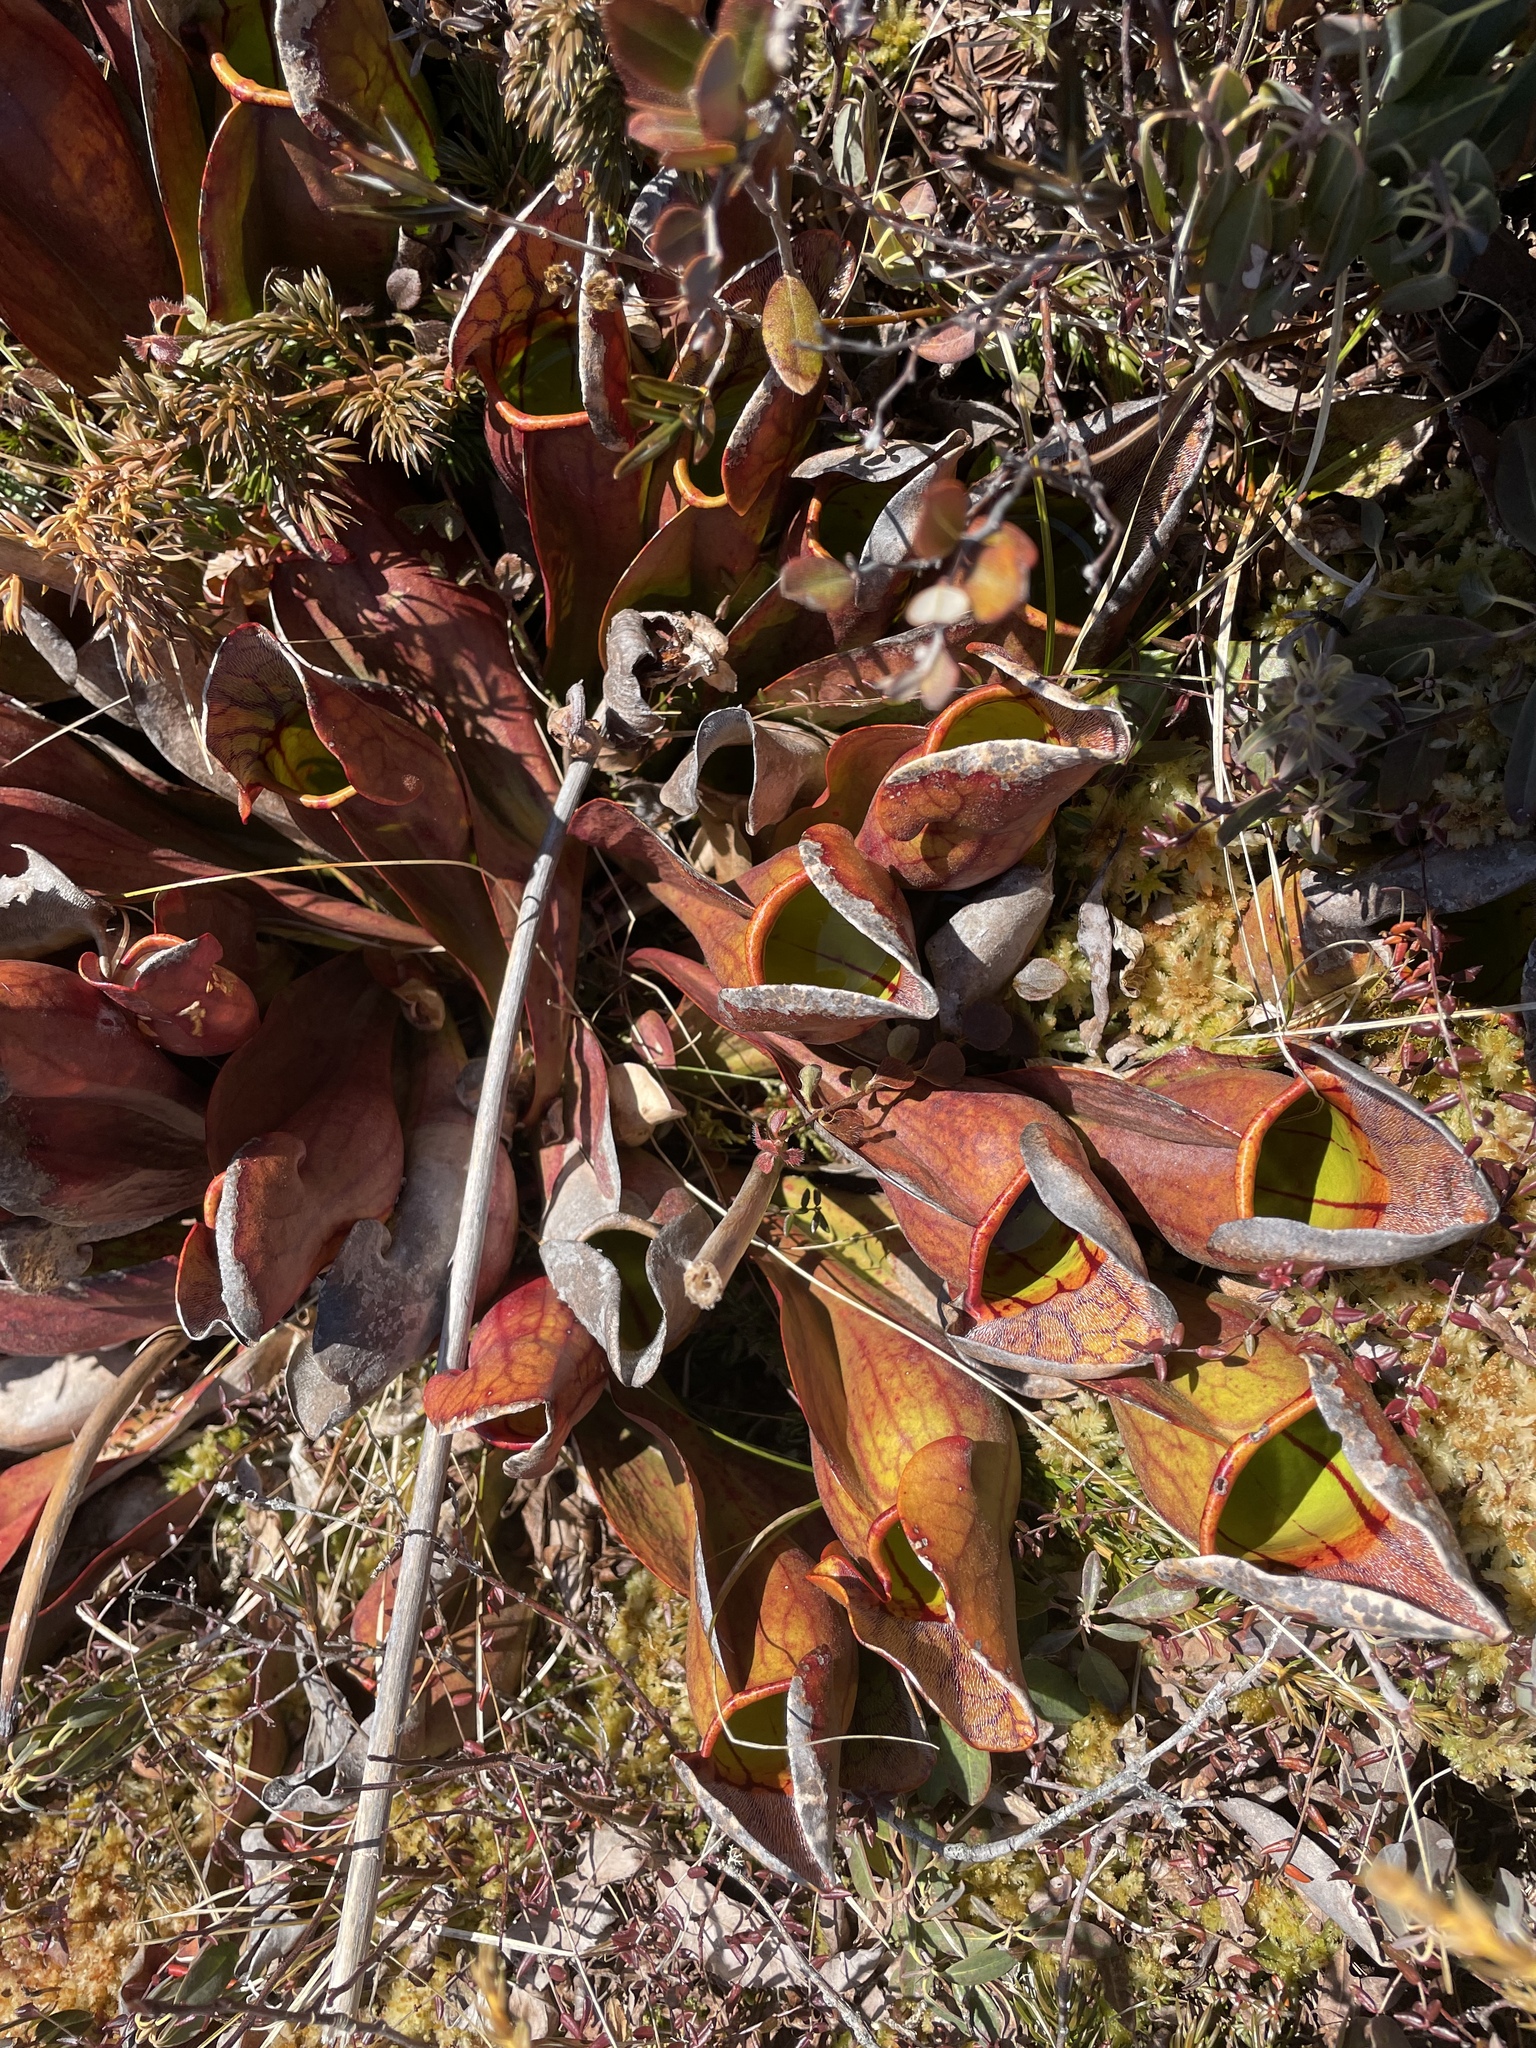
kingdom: Plantae
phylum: Tracheophyta
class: Magnoliopsida
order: Ericales
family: Sarraceniaceae
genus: Sarracenia
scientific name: Sarracenia purpurea
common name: Pitcherplant
